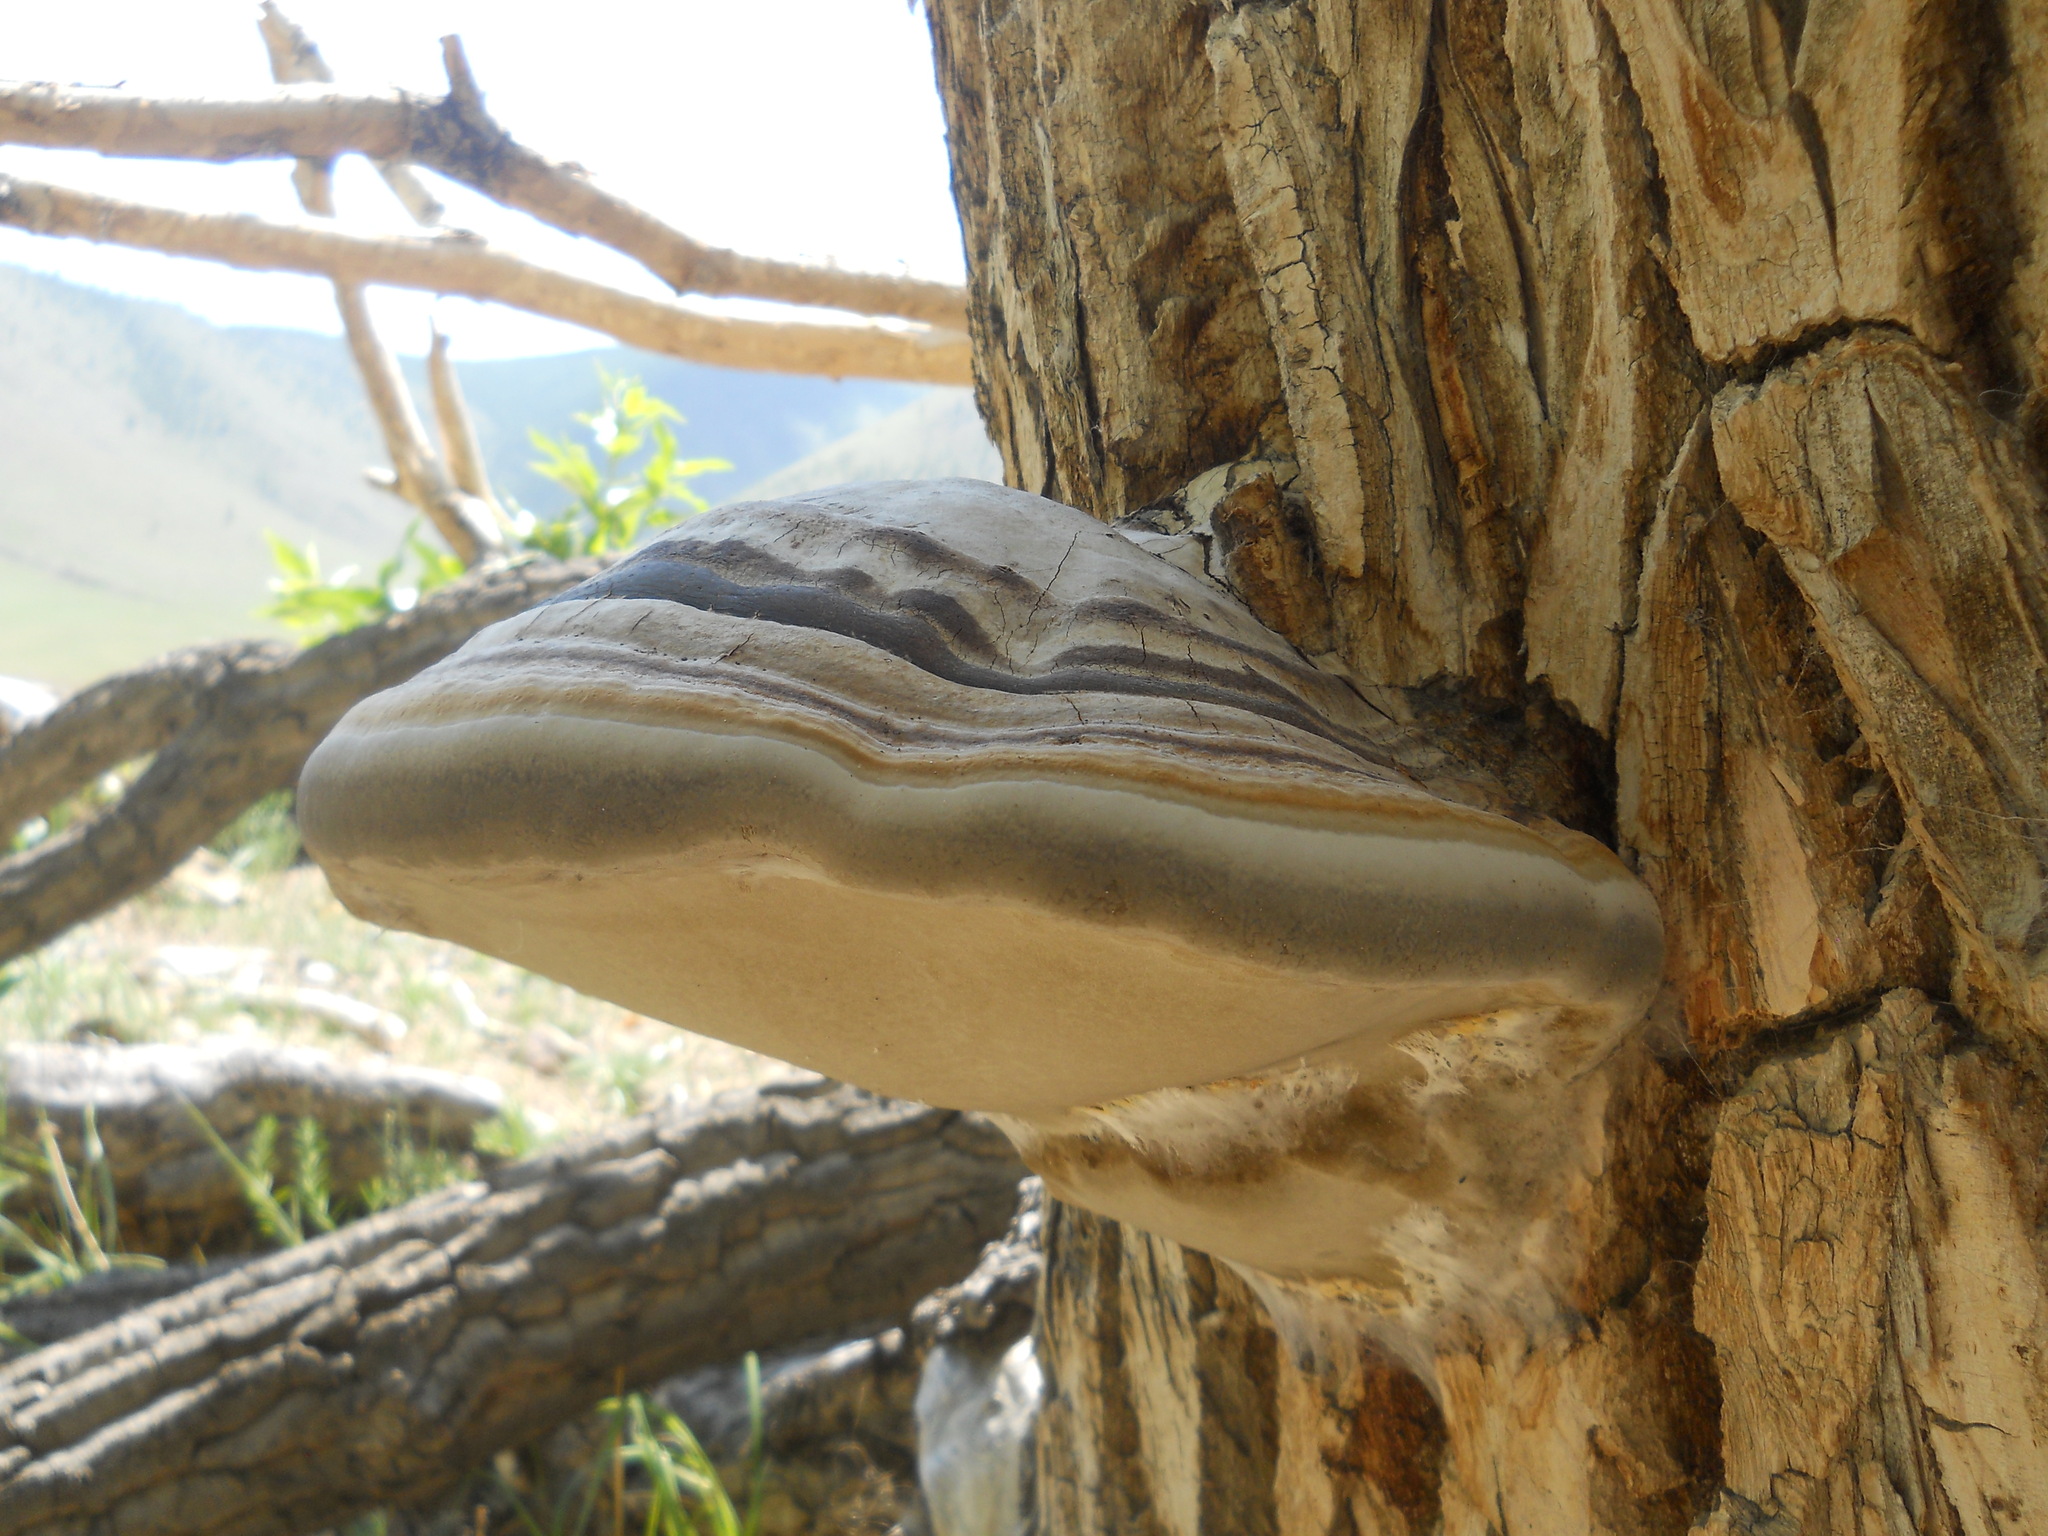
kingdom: Fungi
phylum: Basidiomycota
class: Agaricomycetes
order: Polyporales
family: Polyporaceae
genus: Fomes
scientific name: Fomes fomentarius
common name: Hoof fungus
